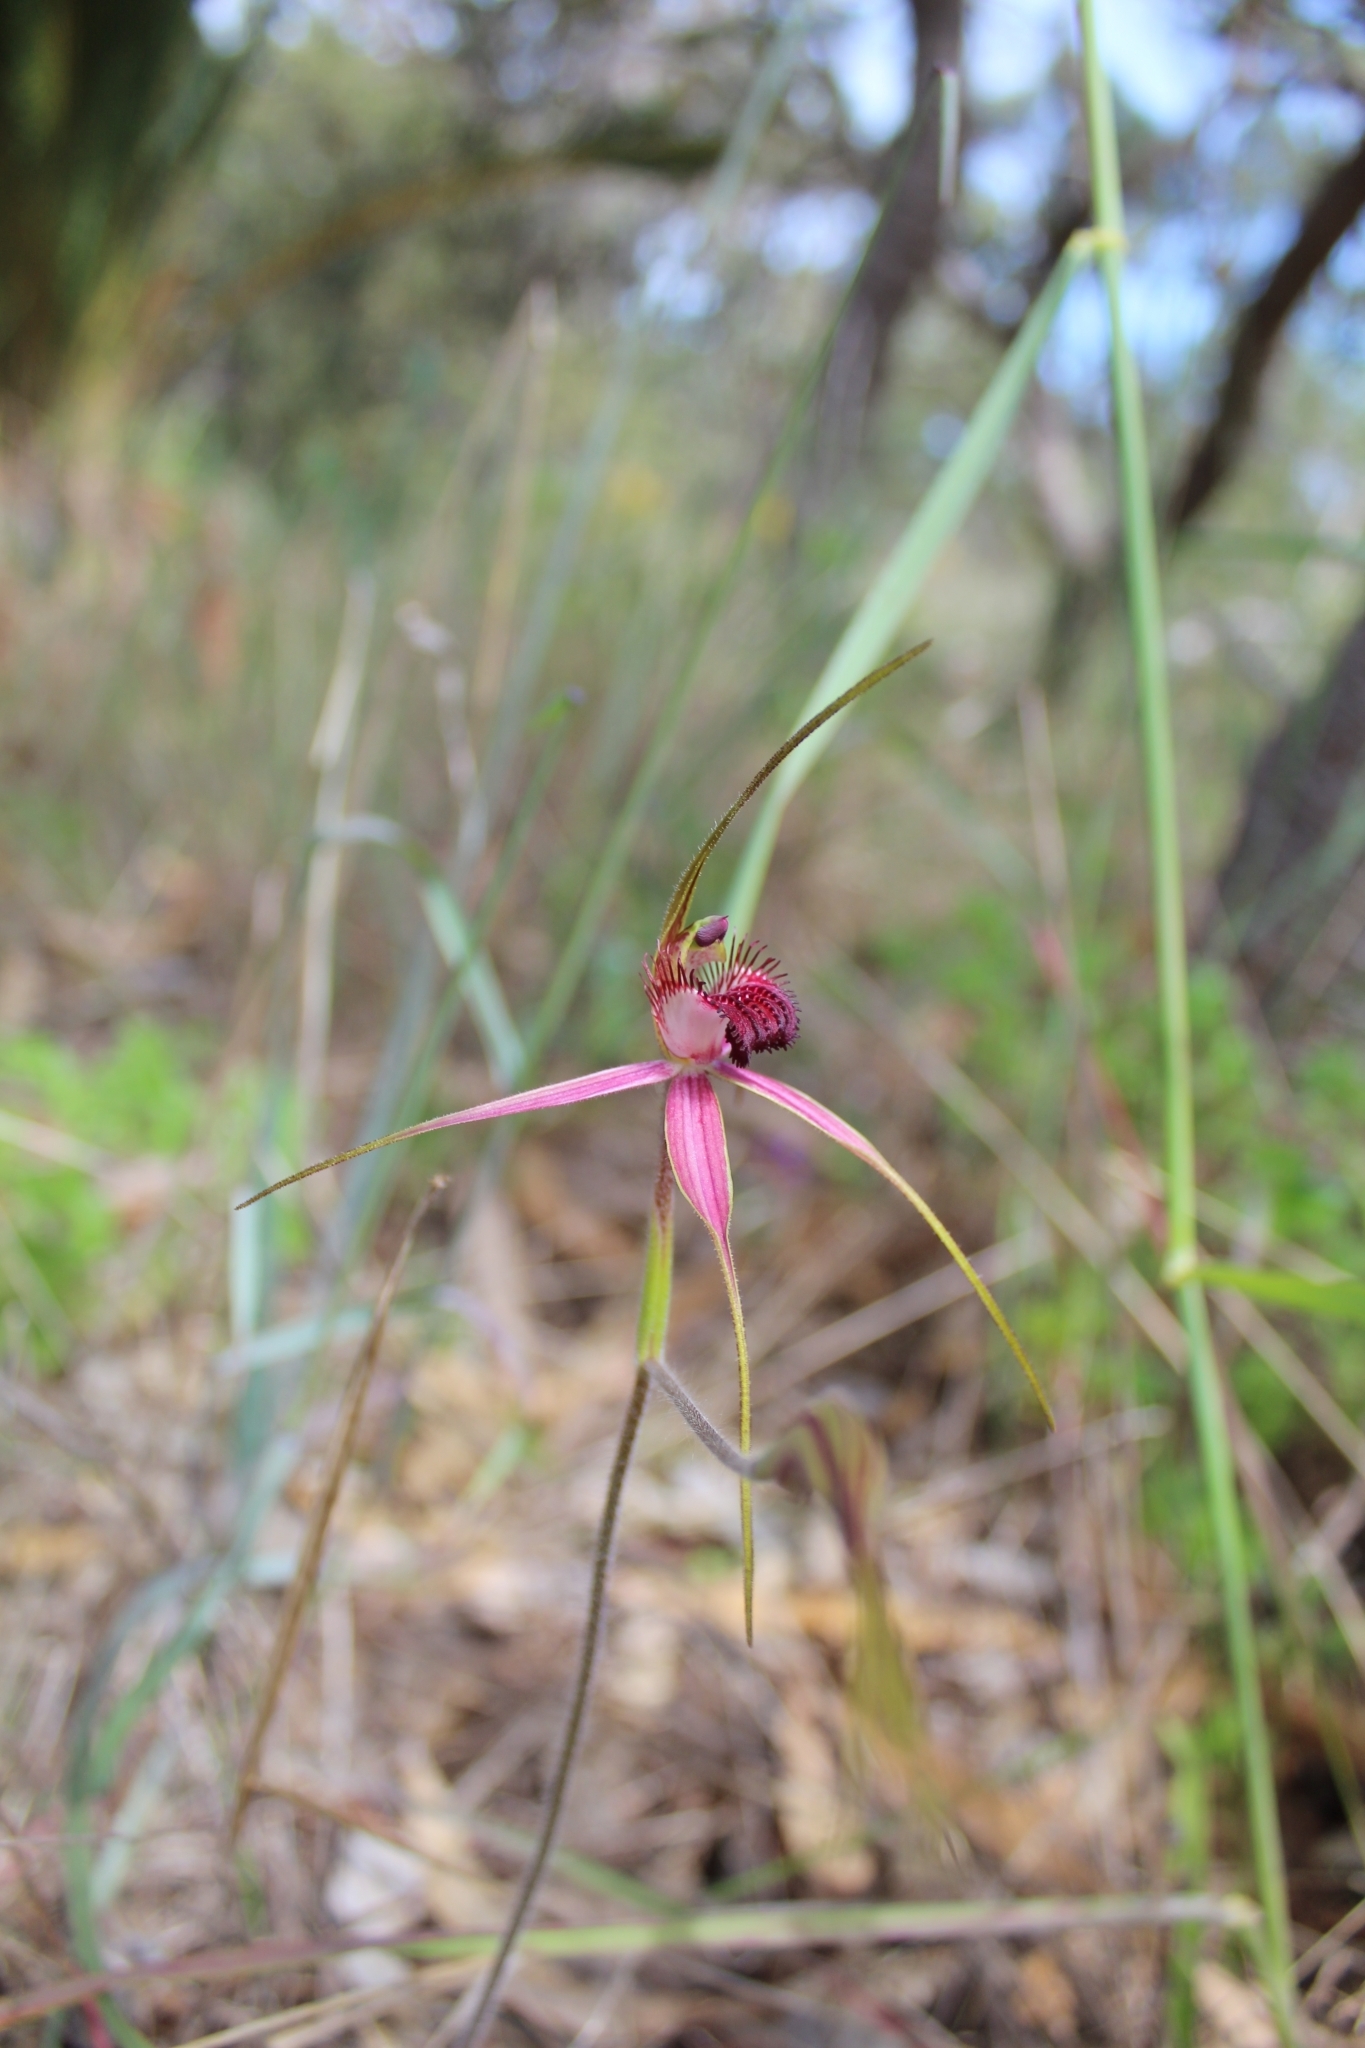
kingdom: Plantae
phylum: Tracheophyta
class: Liliopsida
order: Asparagales
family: Orchidaceae
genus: Caladenia
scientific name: Caladenia arenicola
